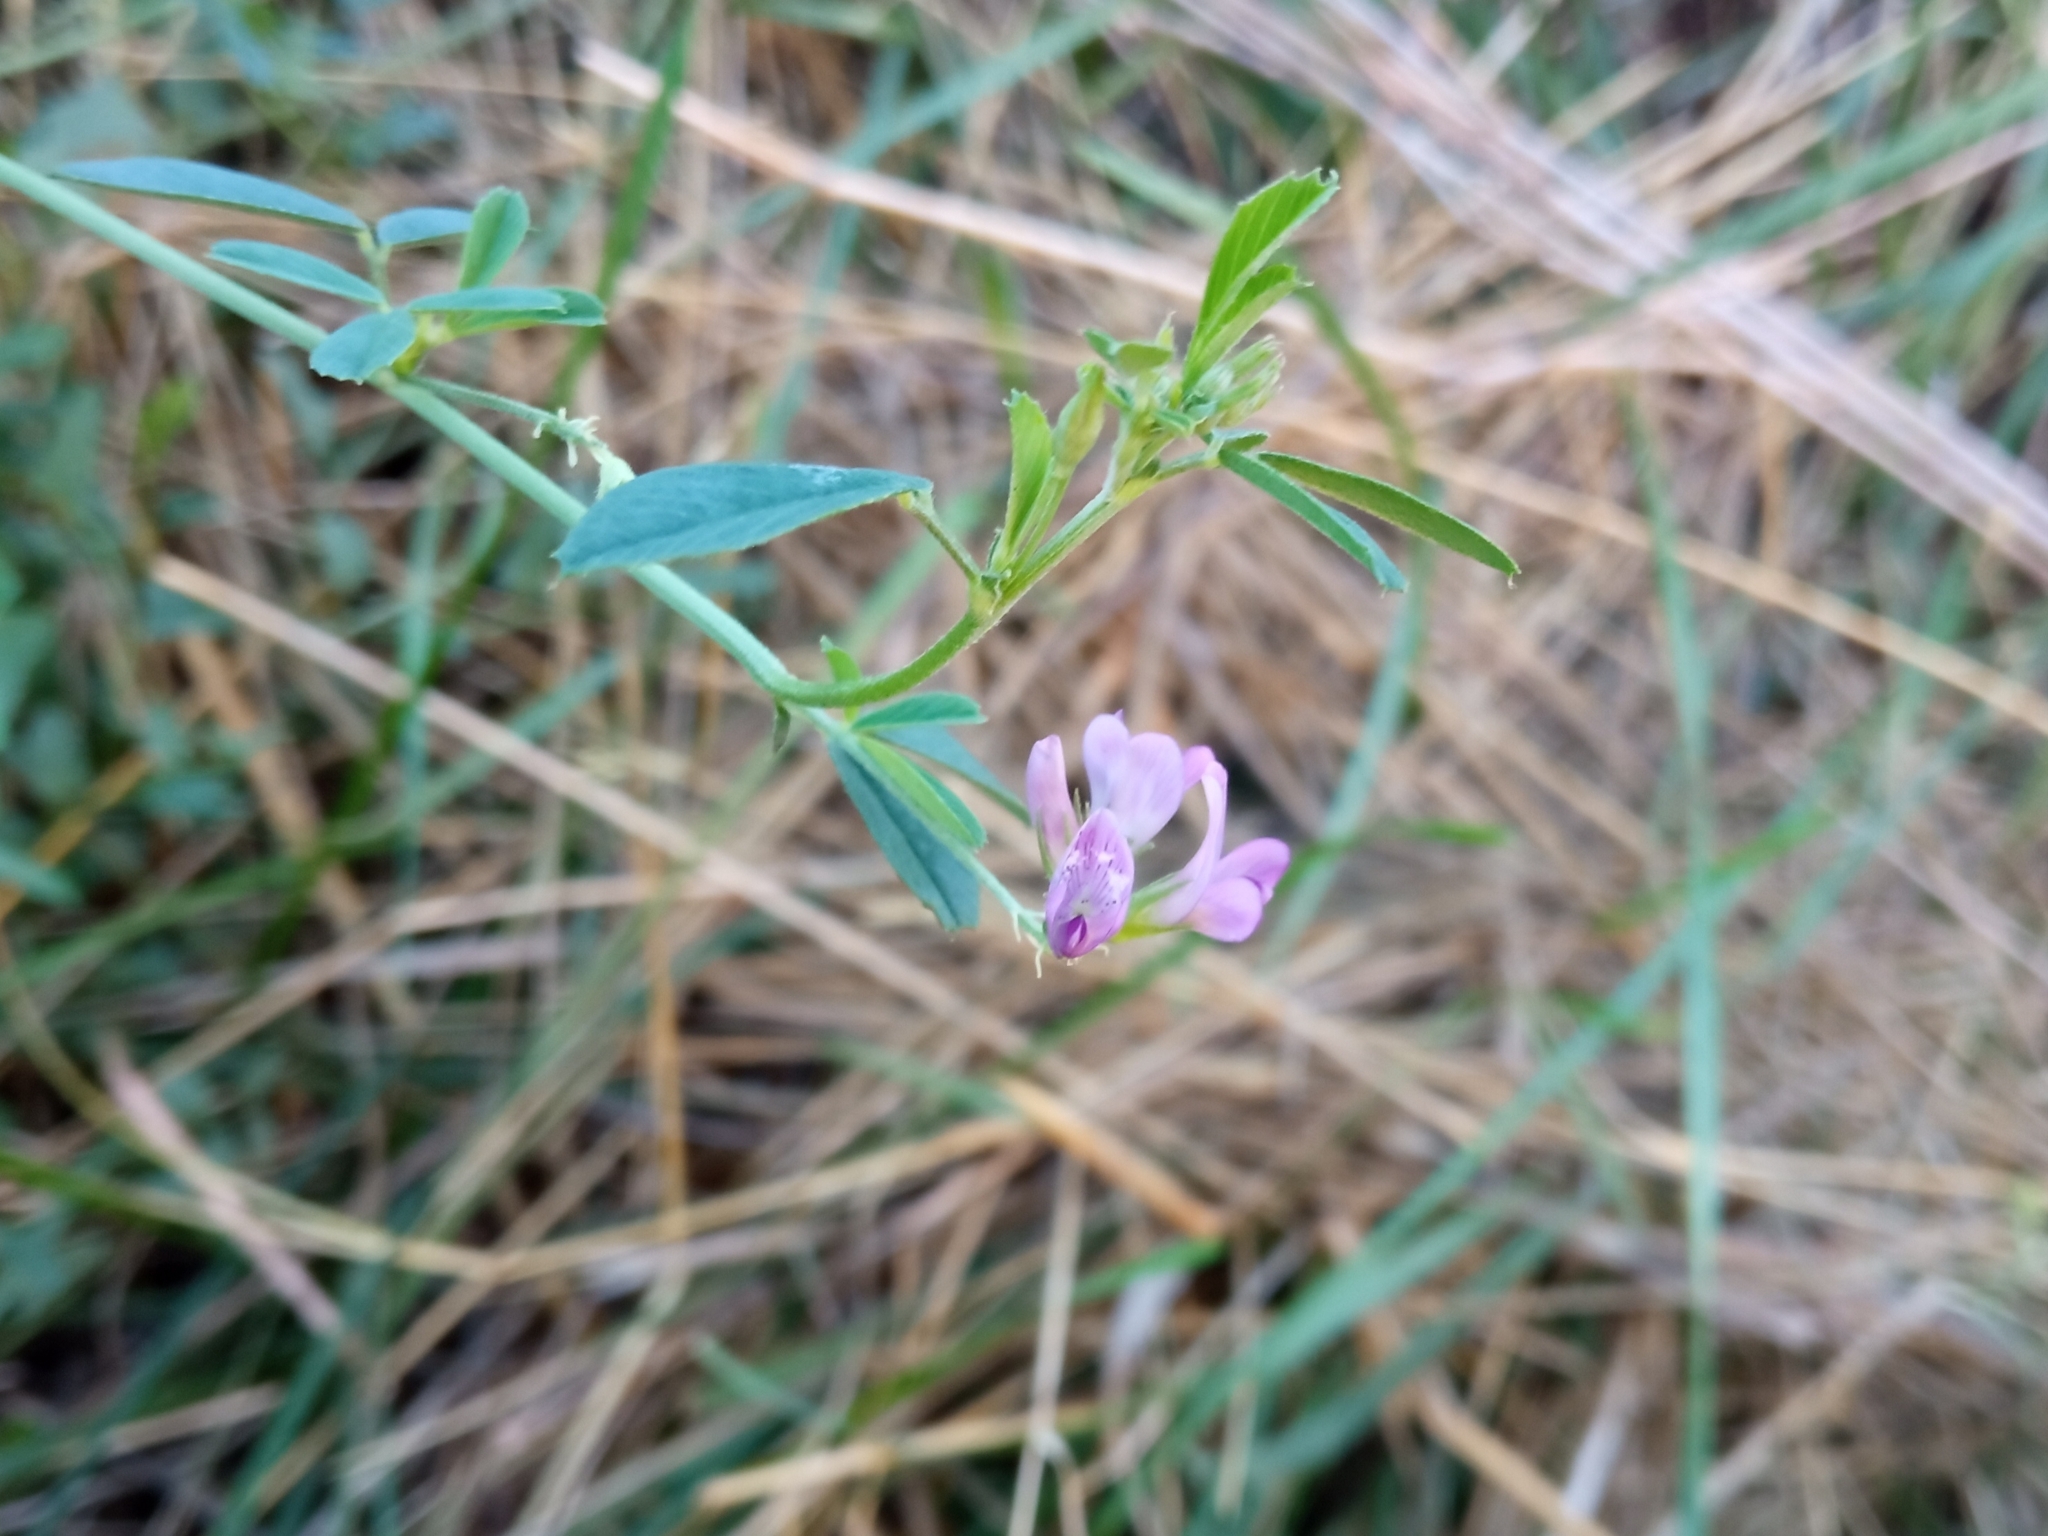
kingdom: Plantae
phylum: Tracheophyta
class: Magnoliopsida
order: Fabales
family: Fabaceae
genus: Medicago
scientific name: Medicago sativa
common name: Alfalfa
